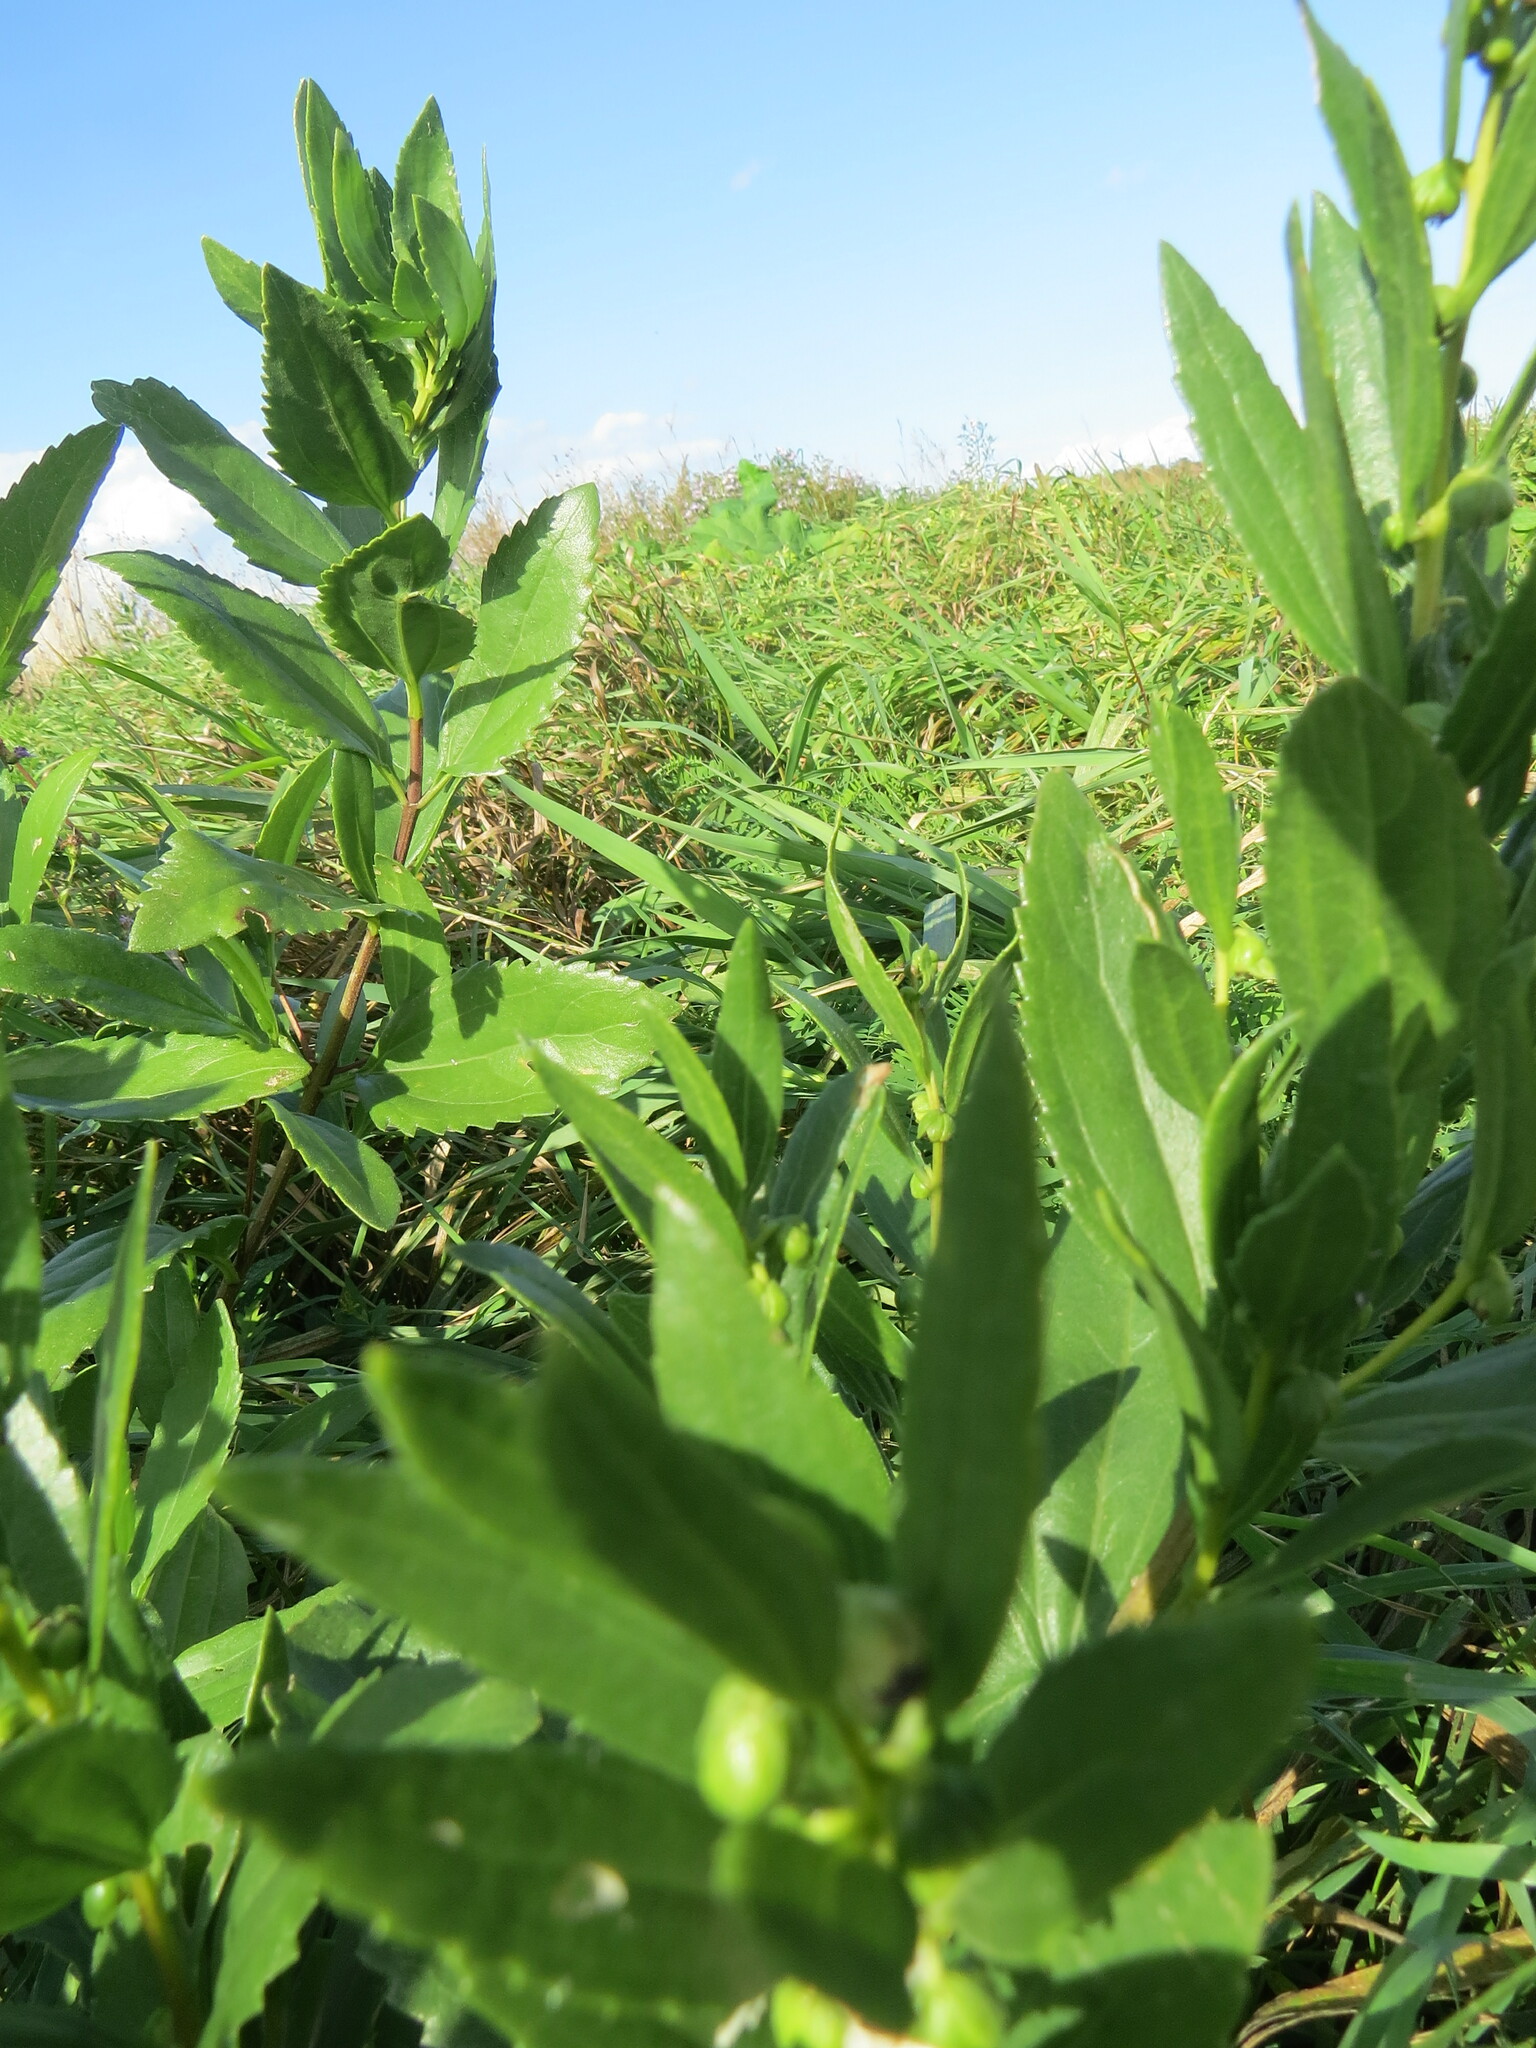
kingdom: Plantae
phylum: Tracheophyta
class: Magnoliopsida
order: Asterales
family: Asteraceae
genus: Iva
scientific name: Iva frutescens
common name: Big-leaved marsh-elder
